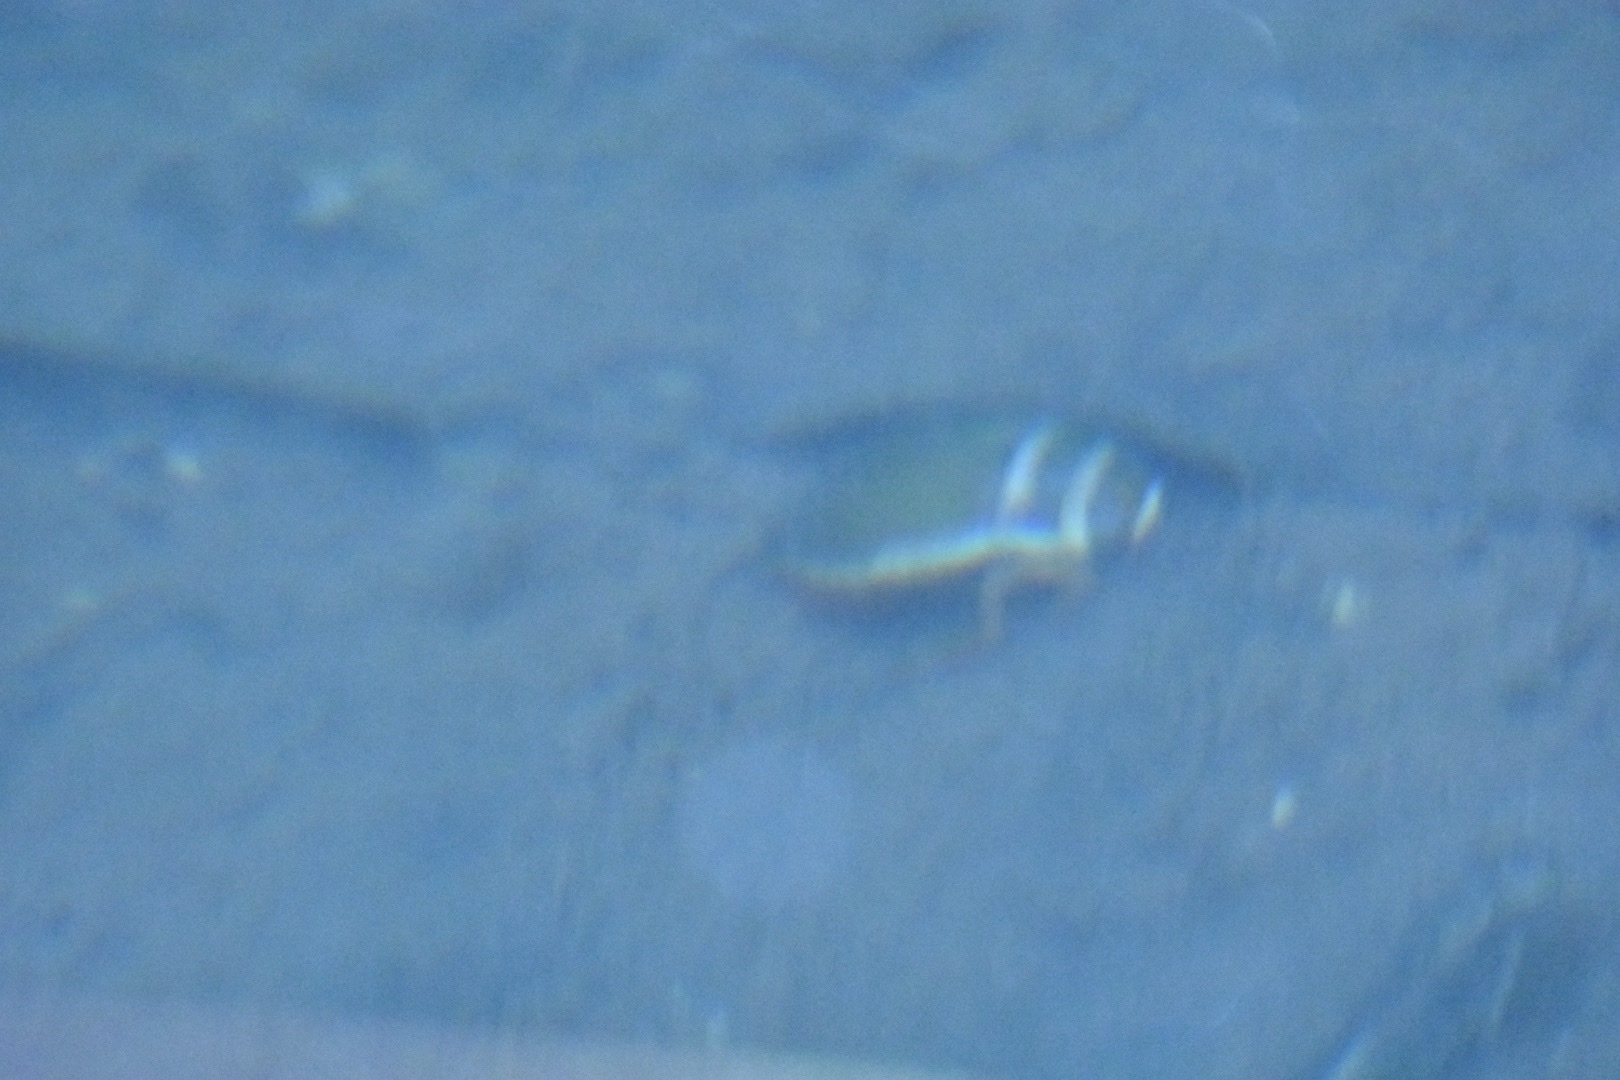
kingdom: Animalia
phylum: Arthropoda
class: Insecta
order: Coleoptera
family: Dytiscidae
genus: Dytiscus
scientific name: Dytiscus marginalis
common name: Great water beetle
